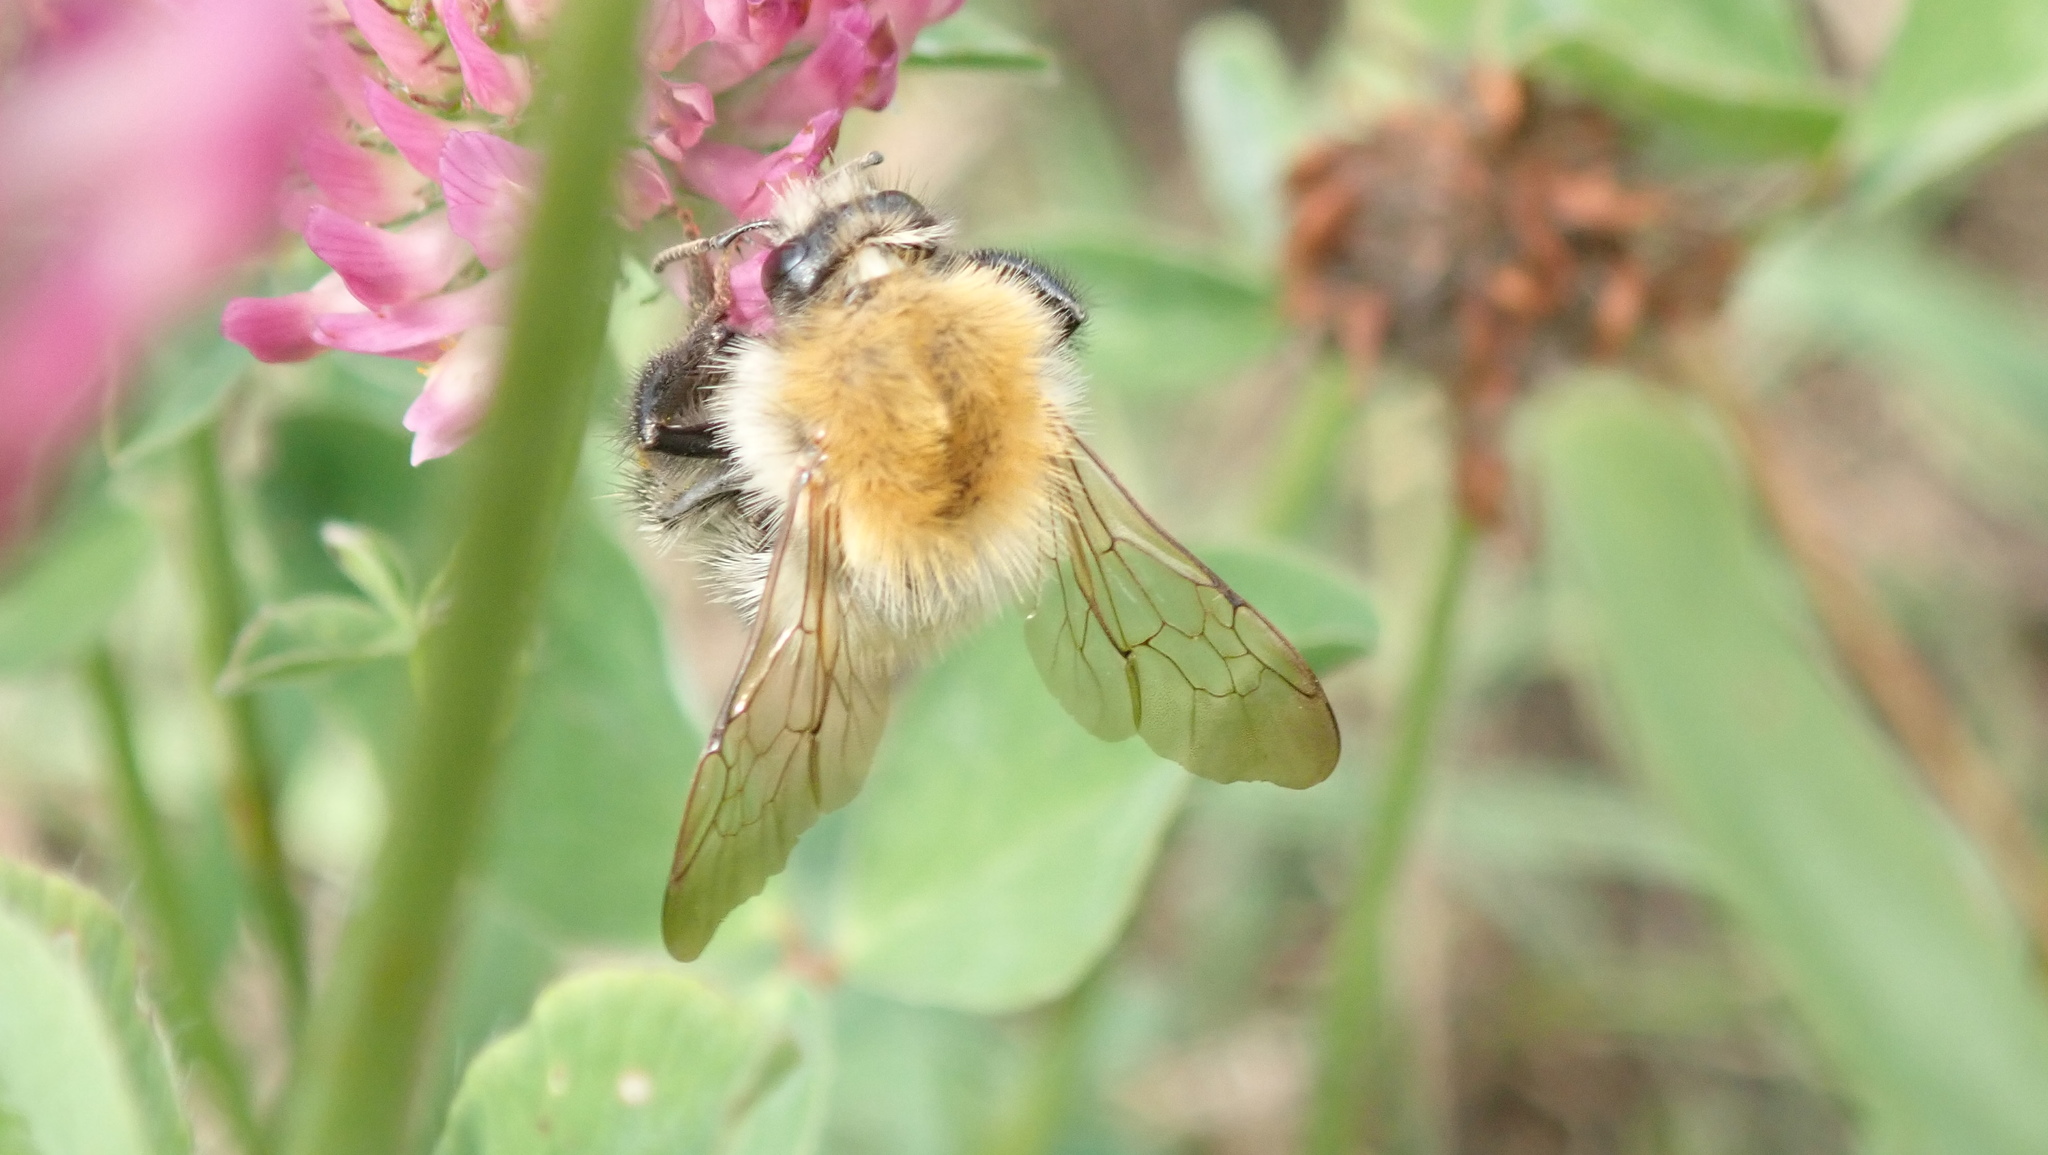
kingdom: Animalia
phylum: Arthropoda
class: Insecta
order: Hymenoptera
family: Apidae
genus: Bombus
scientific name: Bombus pascuorum
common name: Common carder bee
